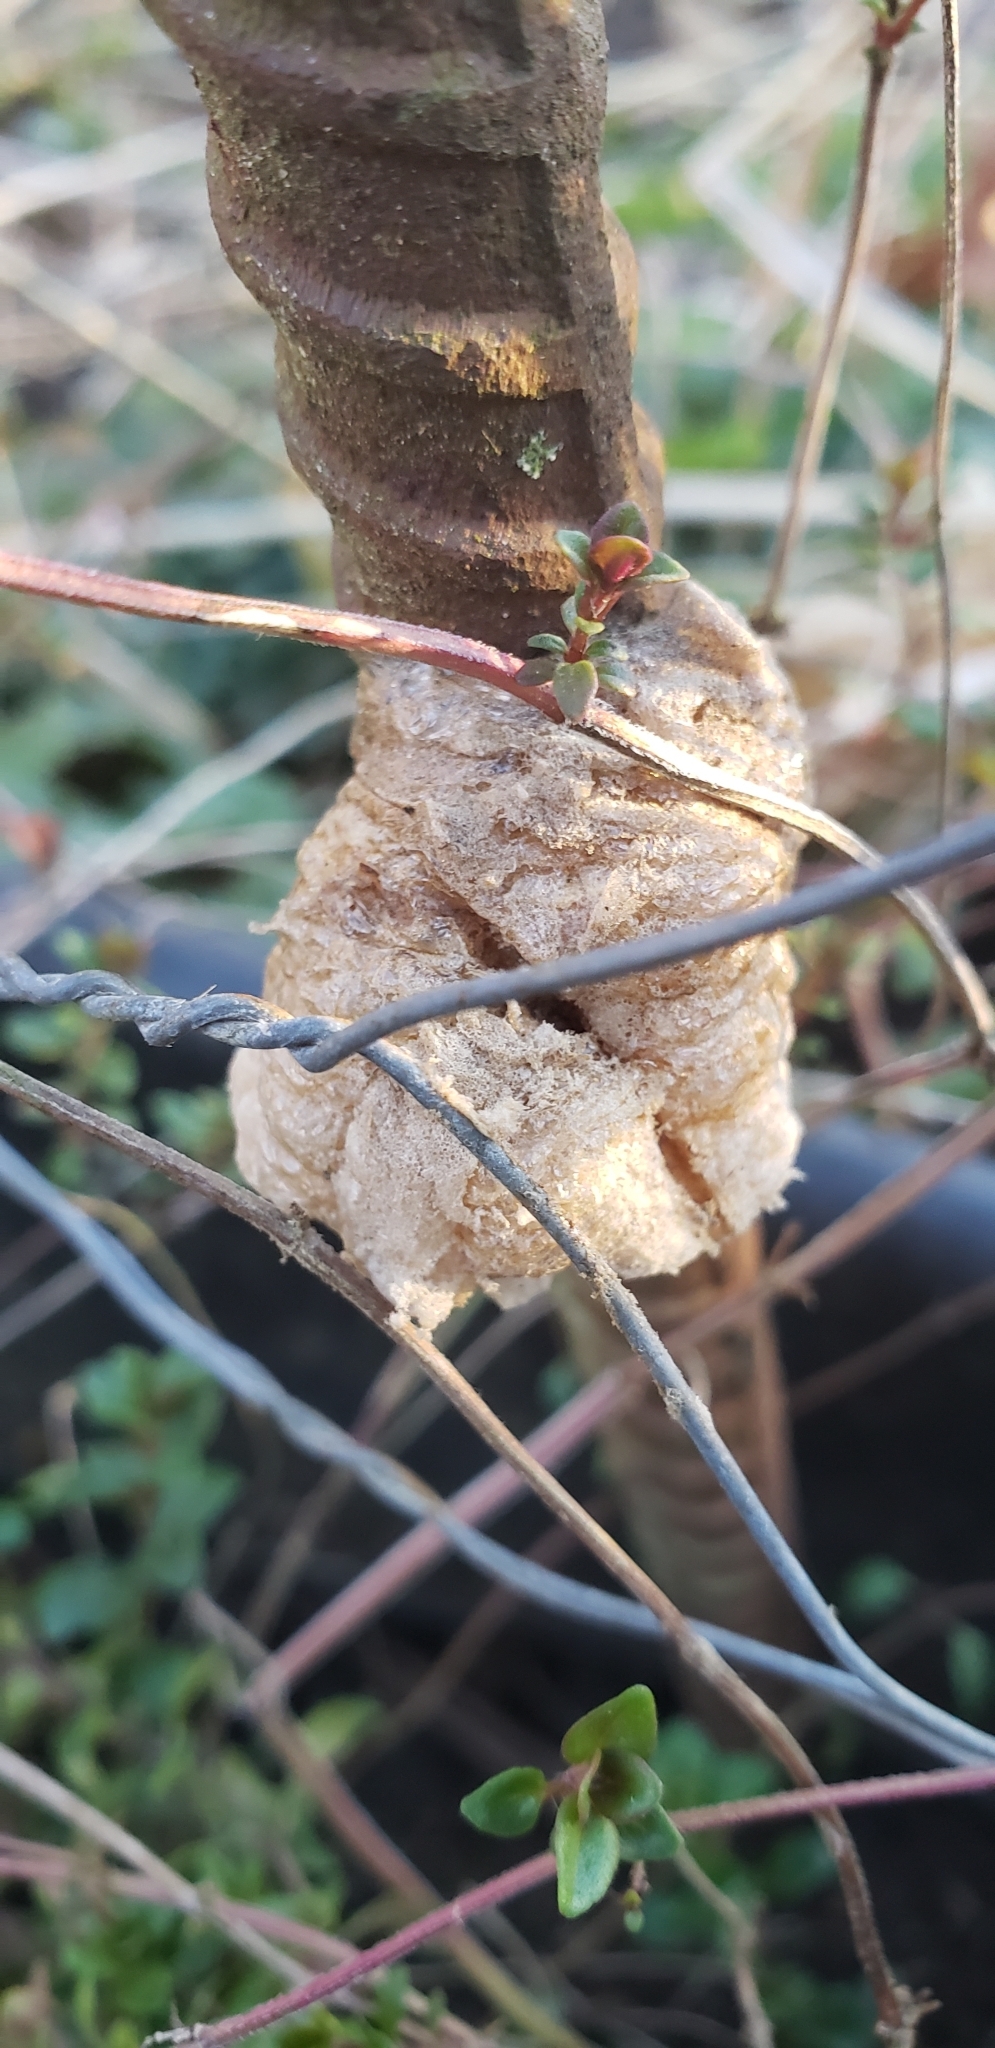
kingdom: Animalia
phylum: Arthropoda
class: Insecta
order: Mantodea
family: Mantidae
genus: Tenodera
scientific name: Tenodera sinensis
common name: Chinese mantis
